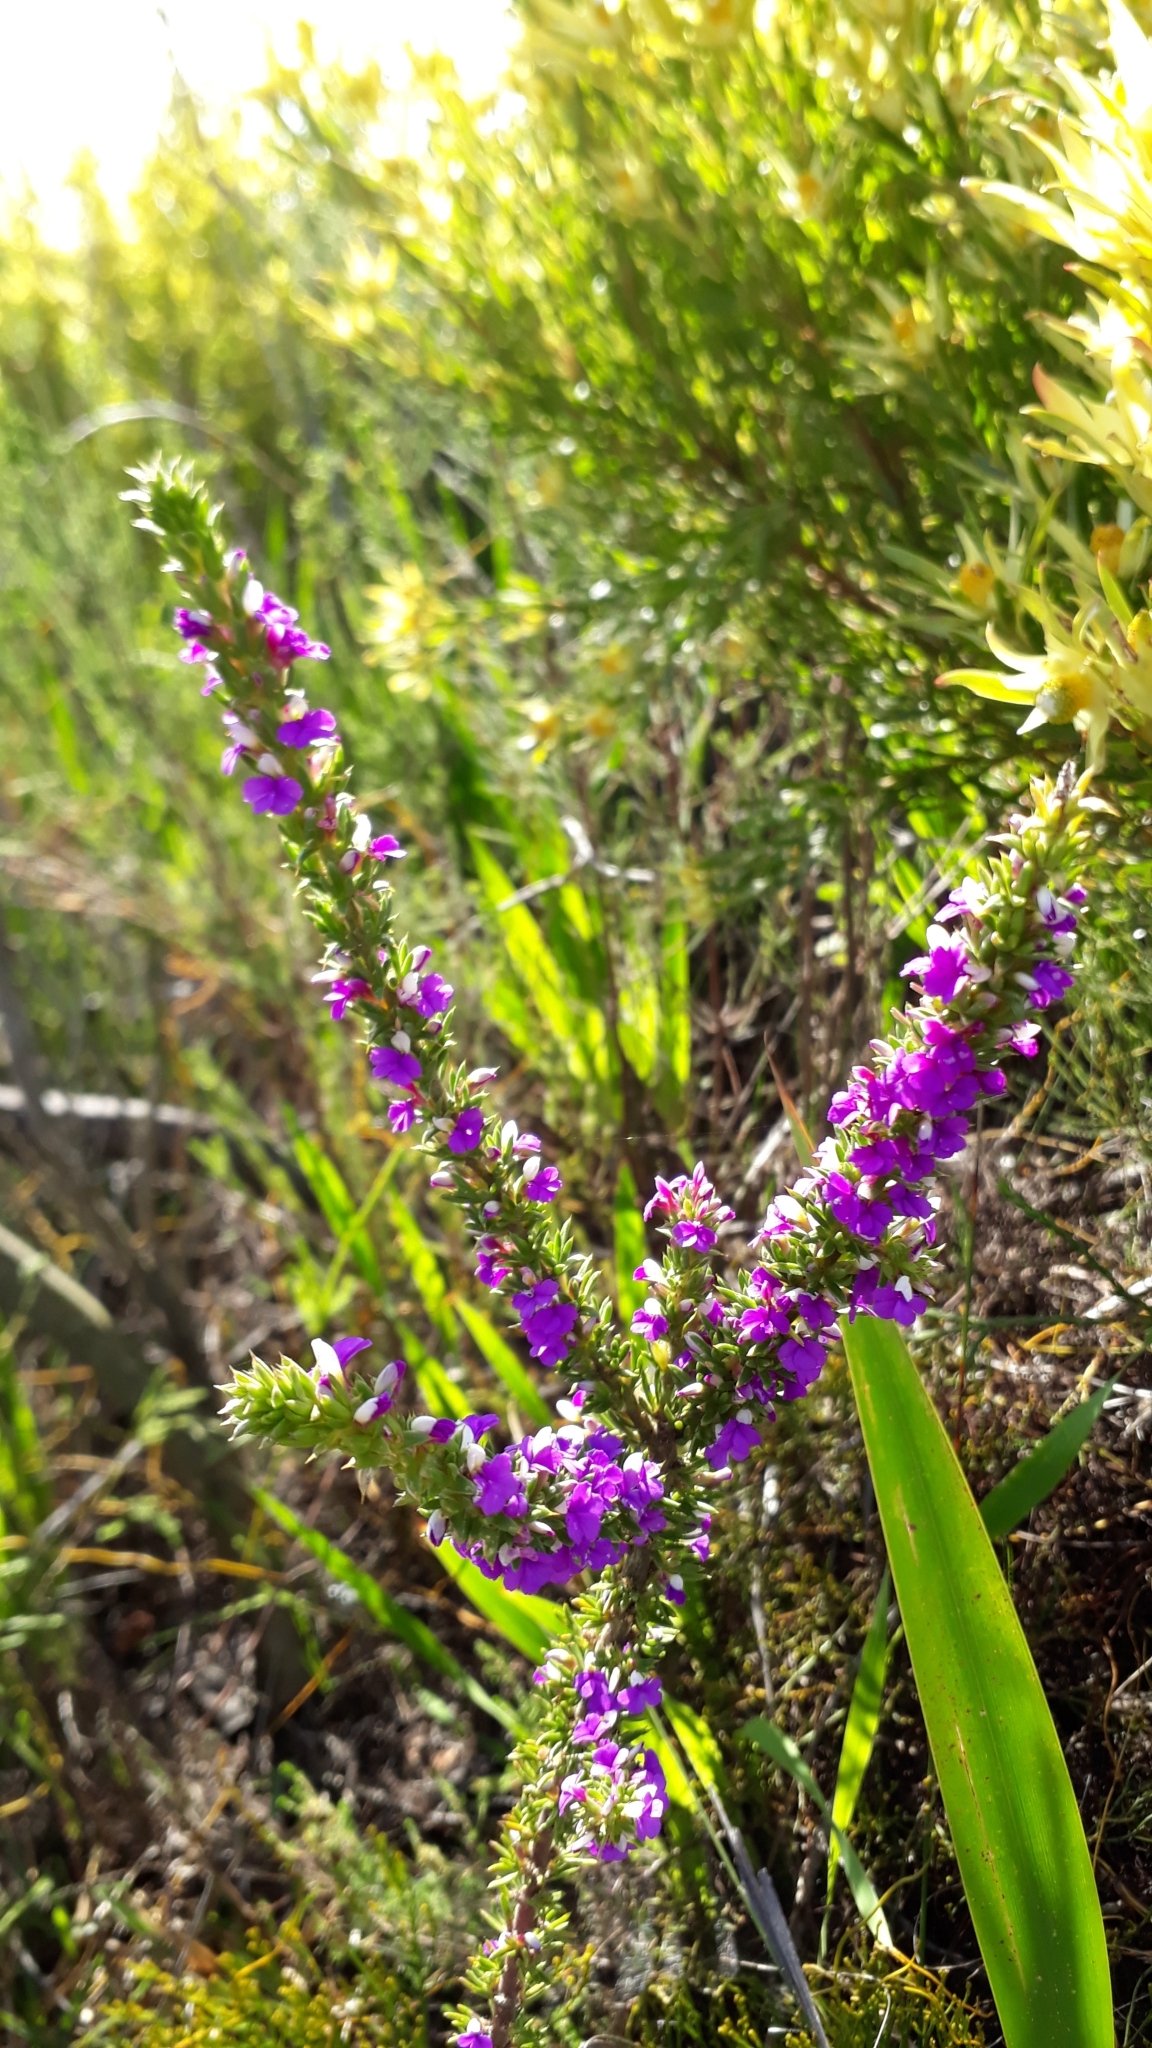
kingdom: Plantae
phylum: Tracheophyta
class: Magnoliopsida
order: Fabales
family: Polygalaceae
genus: Muraltia
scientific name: Muraltia heisteria
